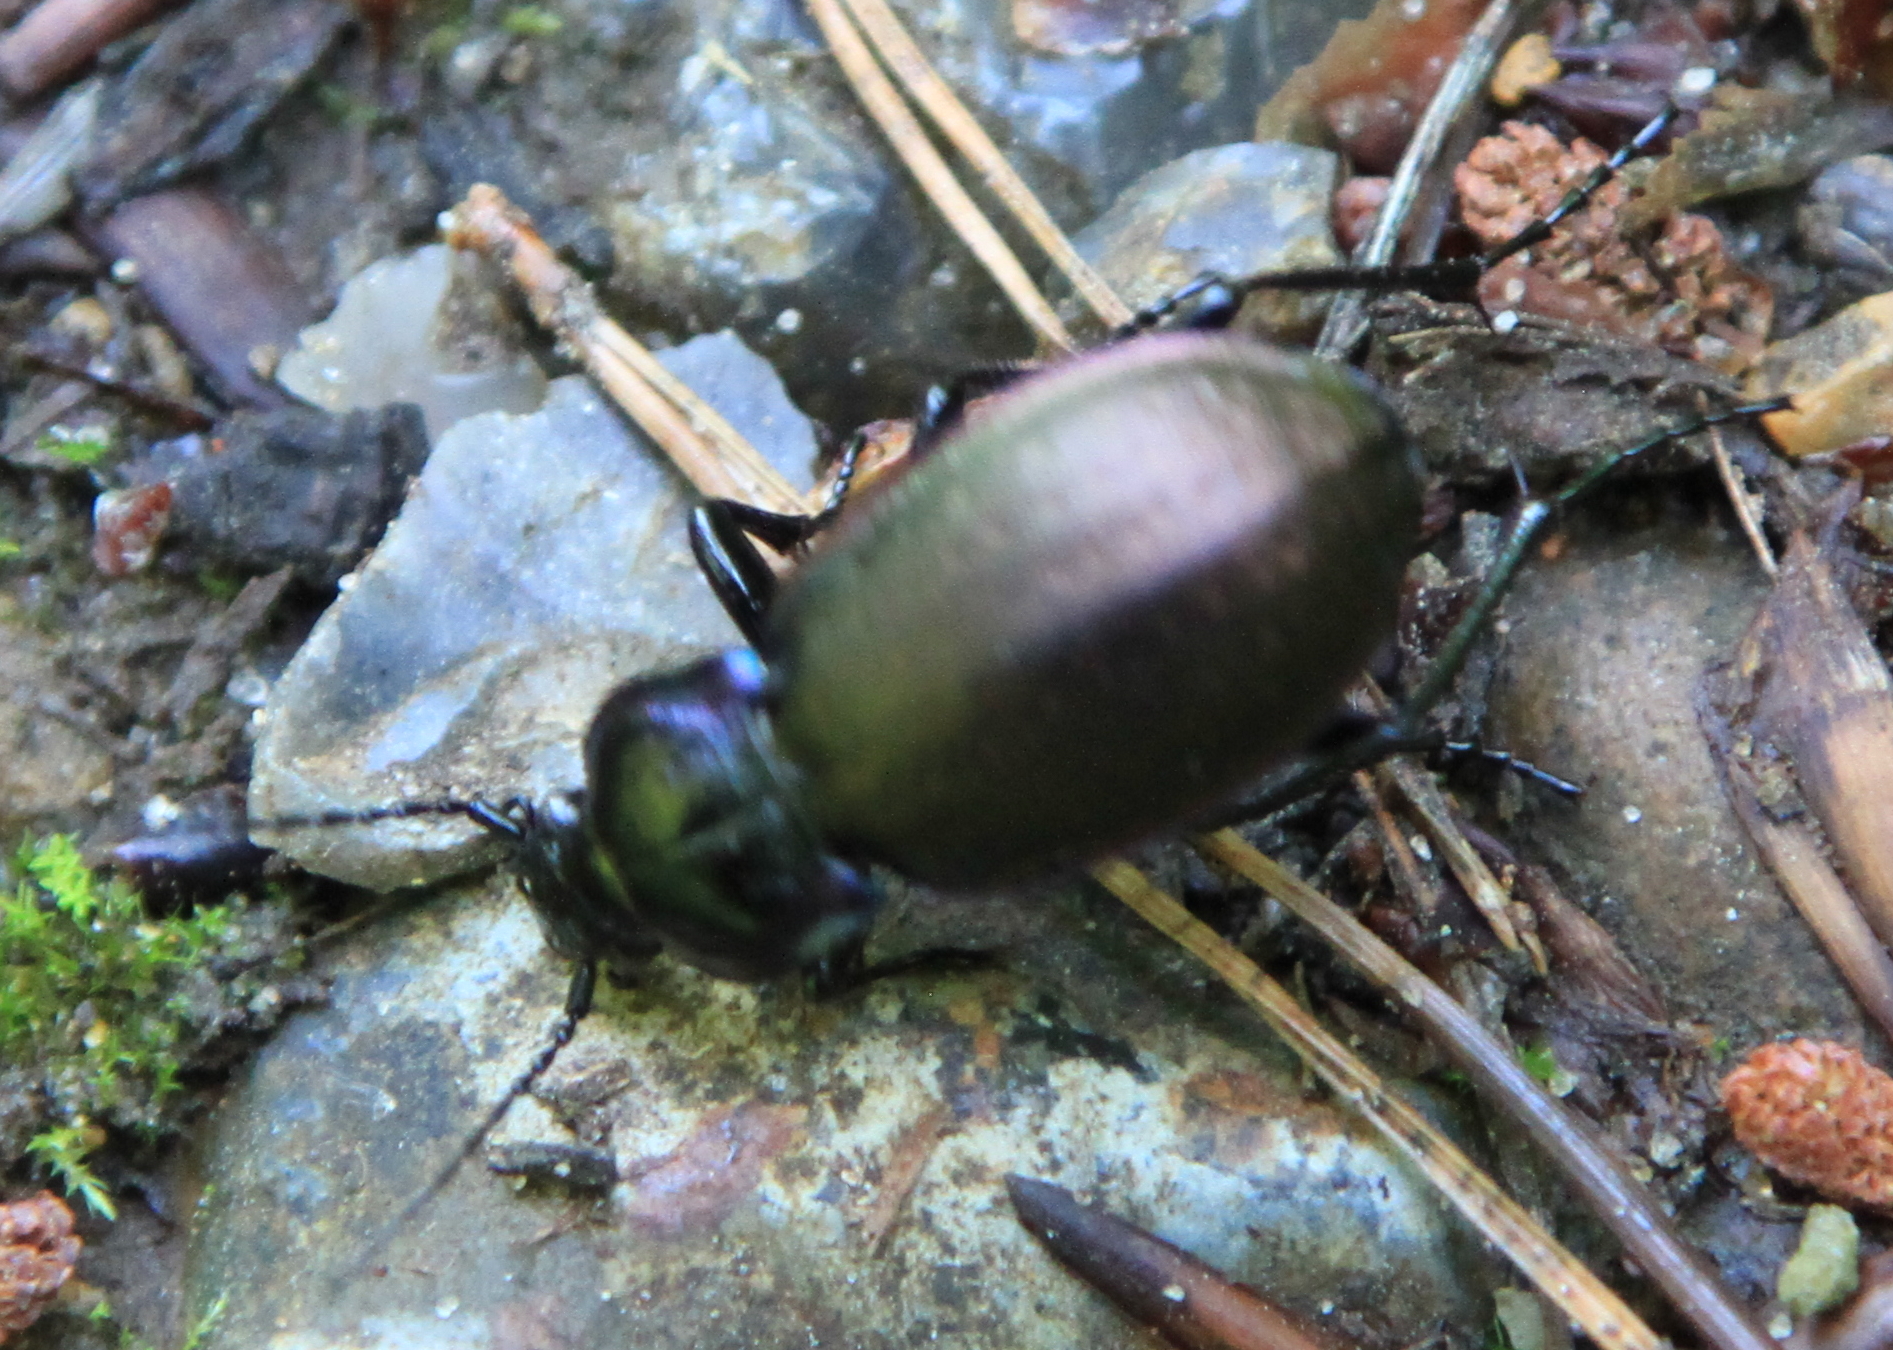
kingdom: Animalia
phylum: Arthropoda
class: Insecta
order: Coleoptera
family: Carabidae
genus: Carabus
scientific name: Carabus nemoralis
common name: European ground beetle
